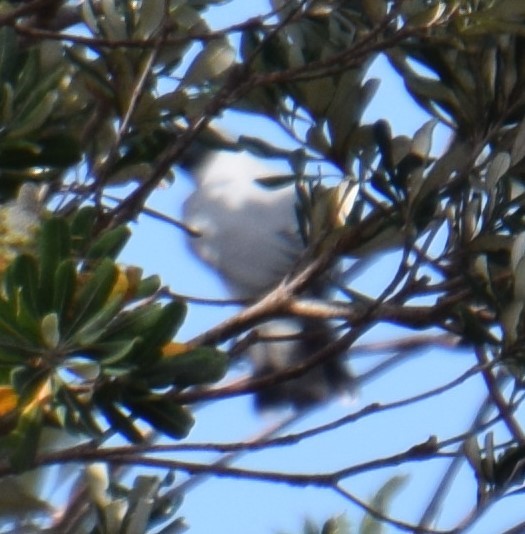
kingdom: Animalia
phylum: Chordata
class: Aves
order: Passeriformes
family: Campephagidae
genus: Coracina
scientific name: Coracina novaehollandiae
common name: Black-faced cuckooshrike
